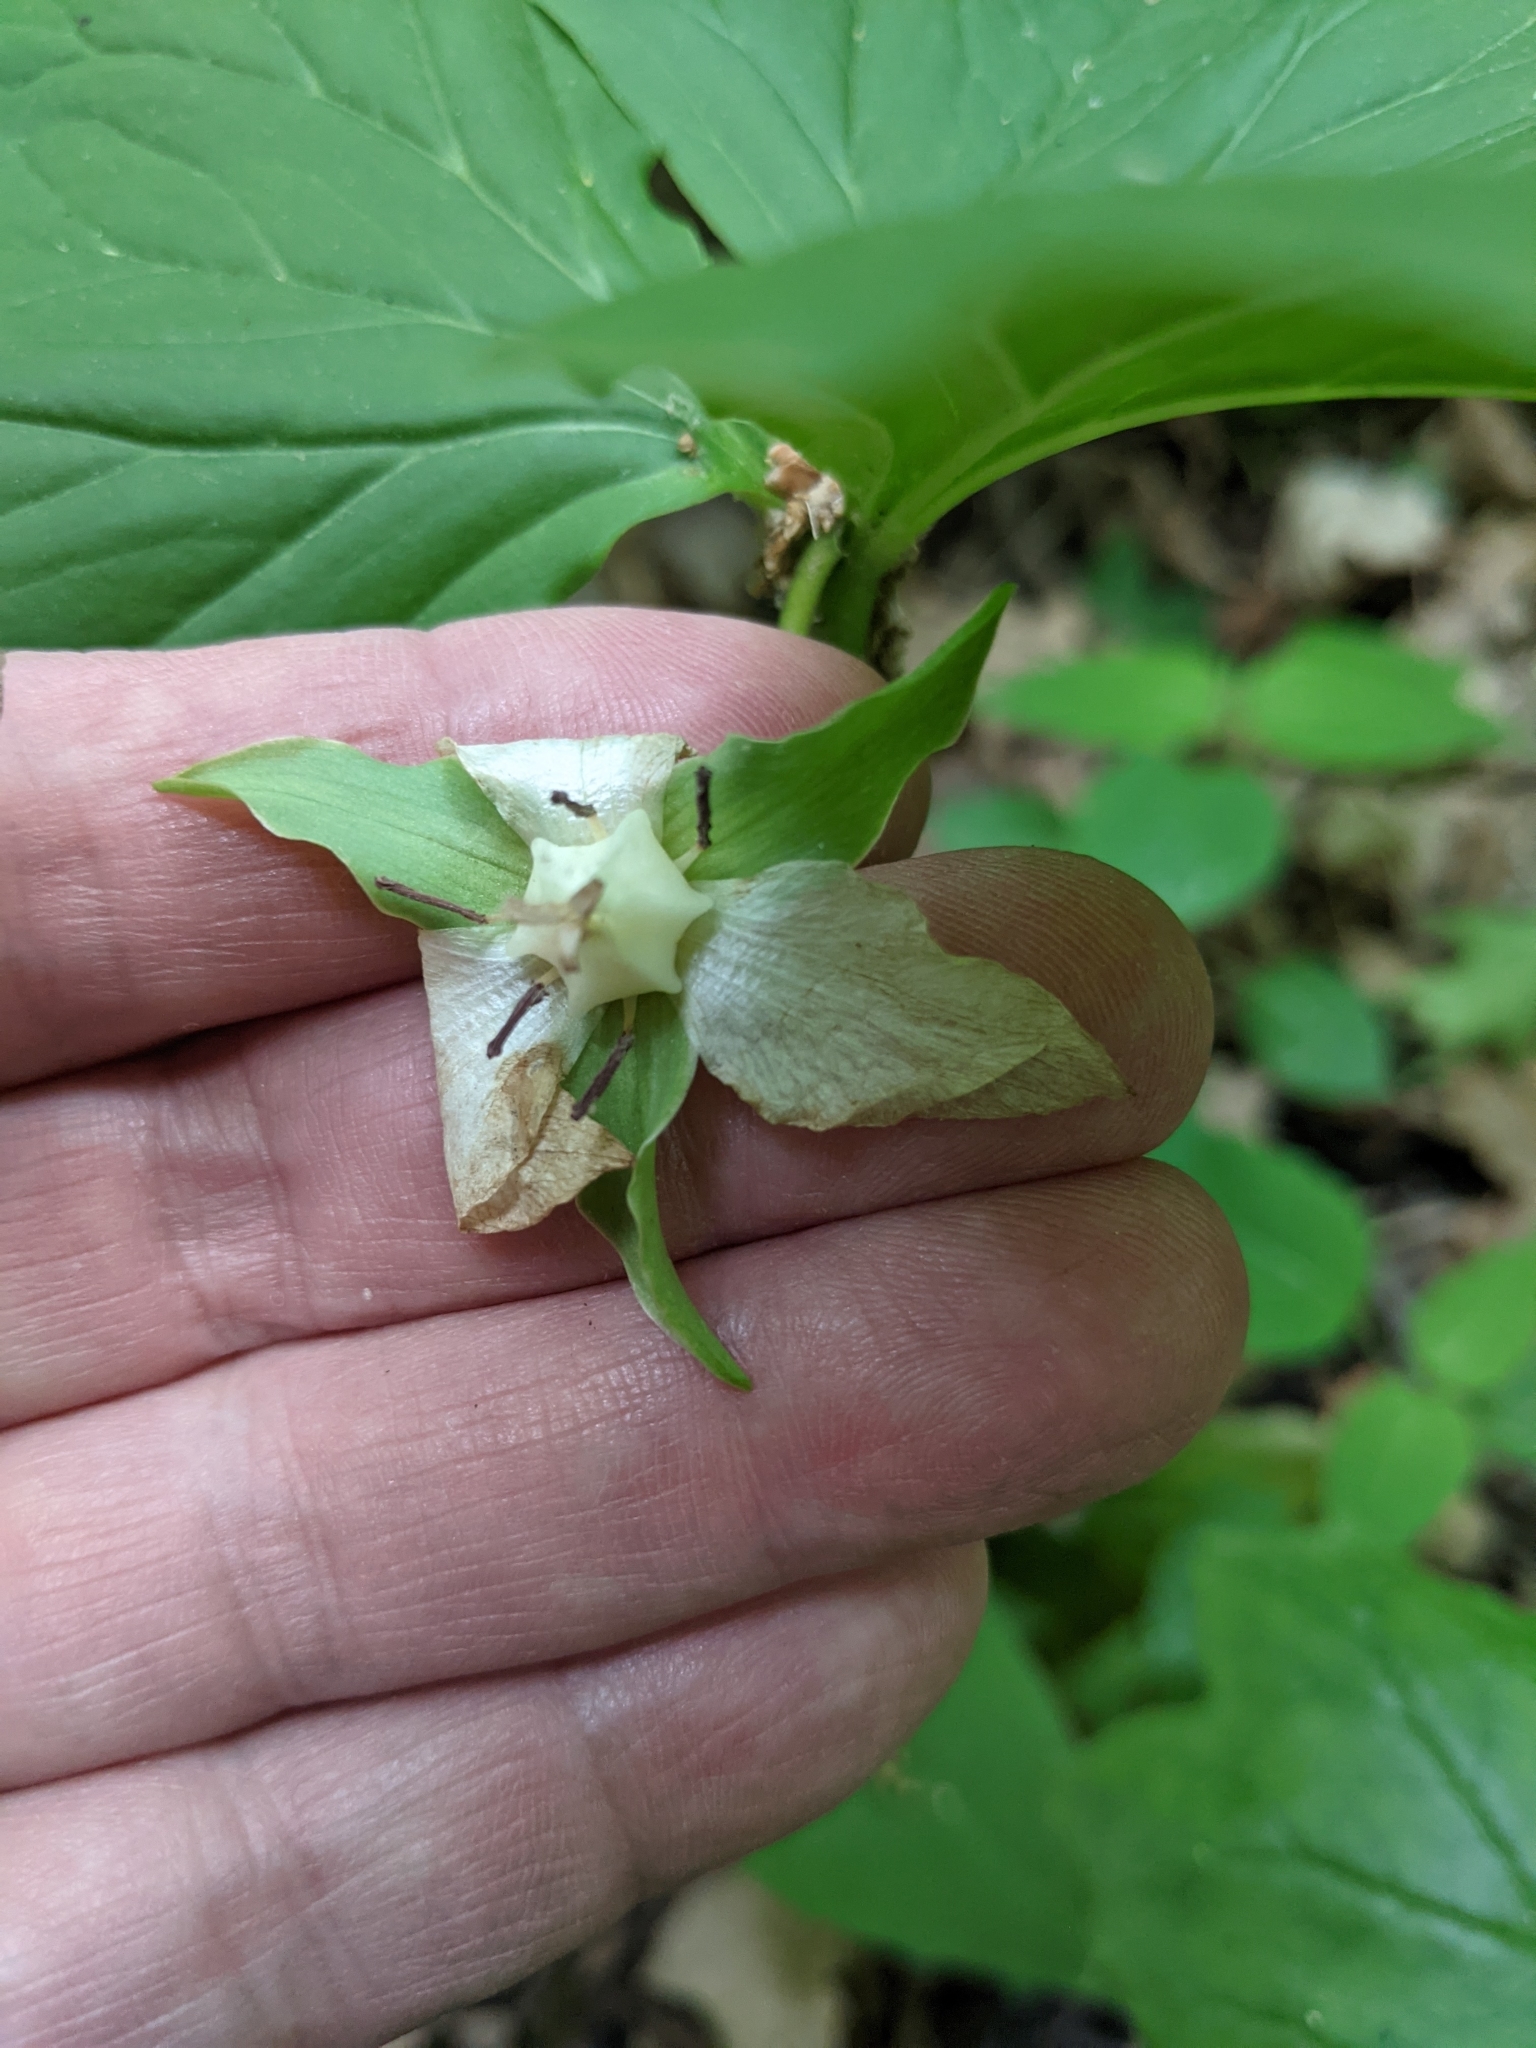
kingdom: Plantae
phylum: Tracheophyta
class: Liliopsida
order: Liliales
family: Melanthiaceae
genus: Trillium
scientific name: Trillium cernuum
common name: Nodding trillium
